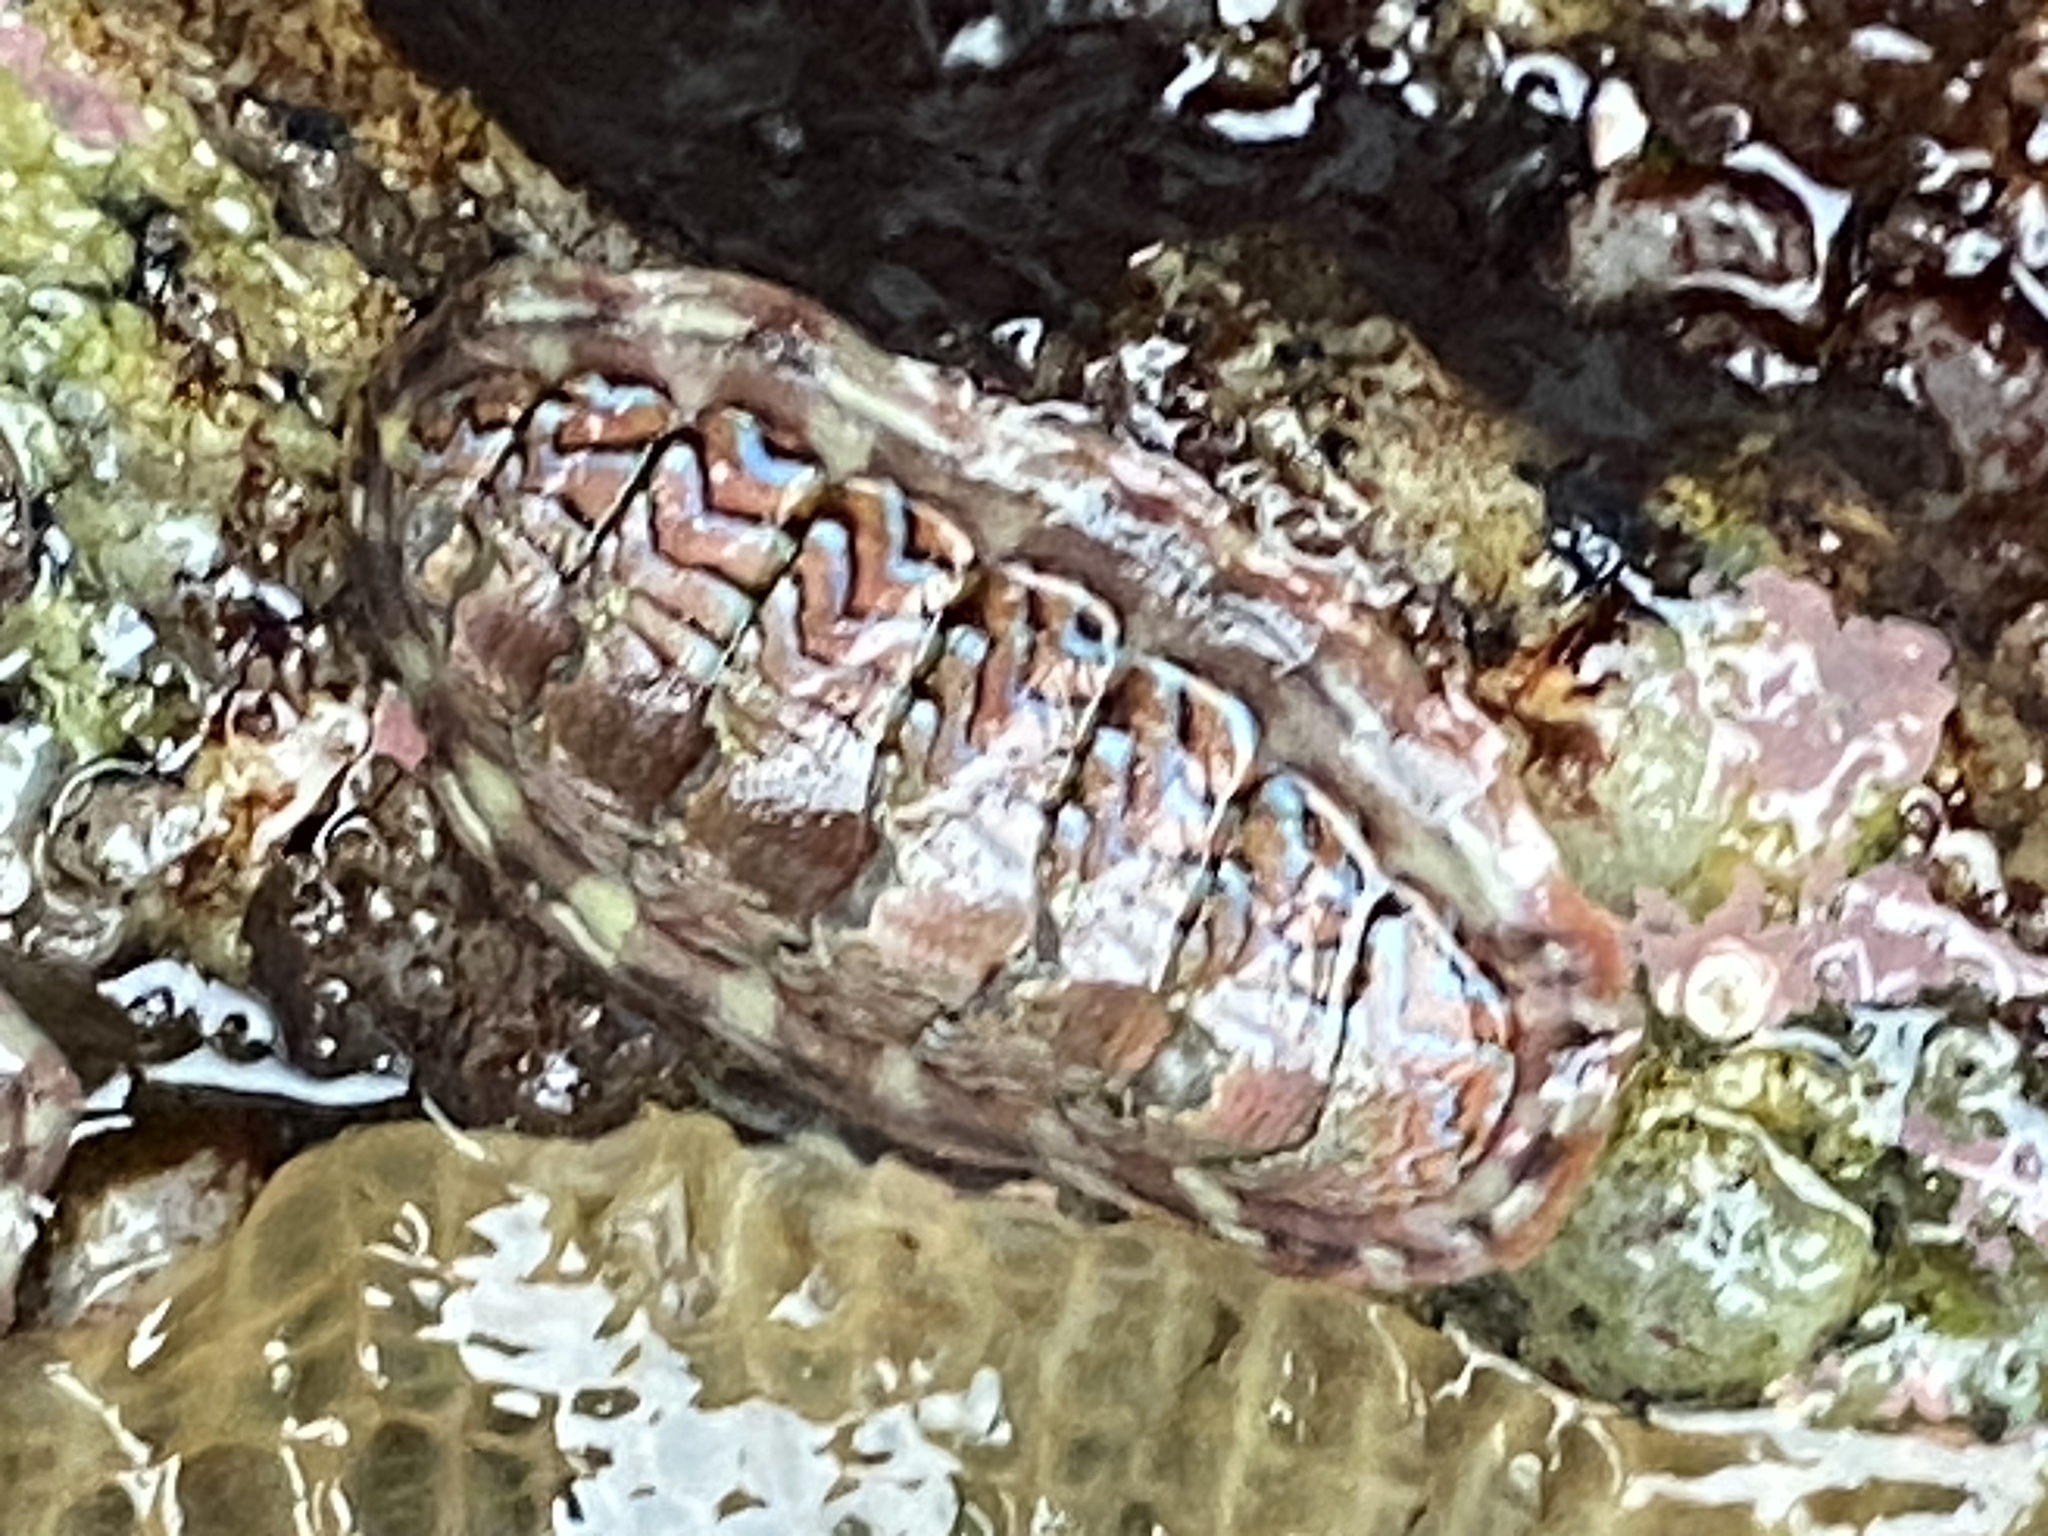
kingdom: Animalia
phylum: Mollusca
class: Polyplacophora
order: Chitonida
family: Tonicellidae
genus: Tonicella
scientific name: Tonicella lokii
